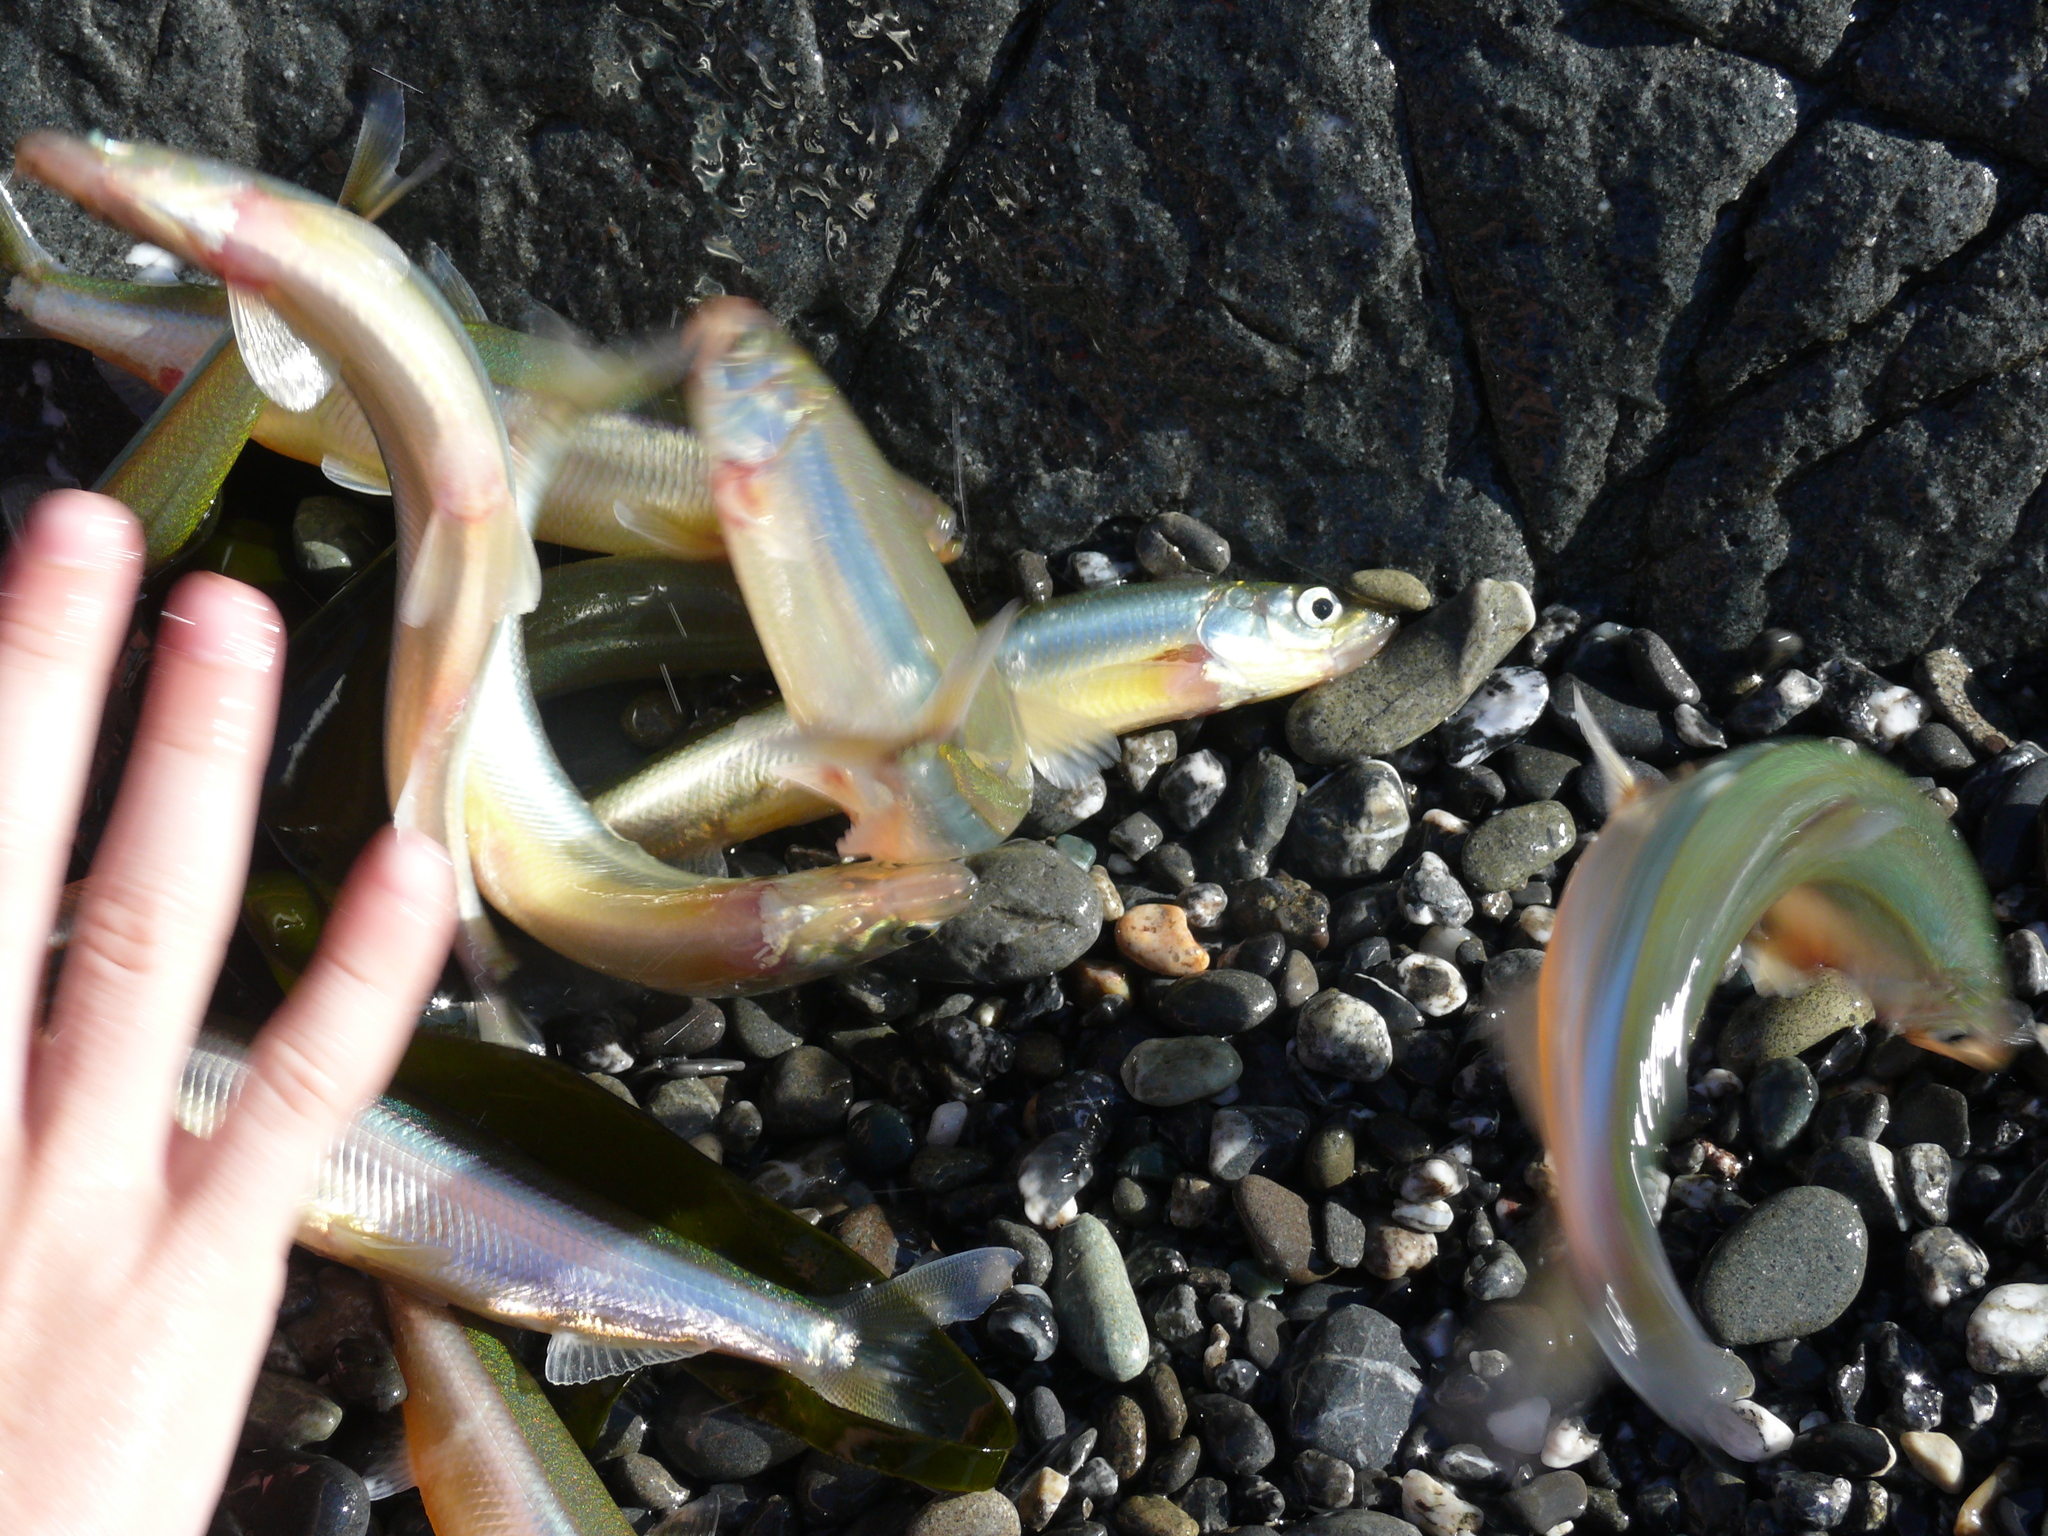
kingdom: Animalia
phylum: Chordata
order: Osmeriformes
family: Osmeridae
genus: Hypomesus
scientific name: Hypomesus pretiosus
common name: Surf smelt
